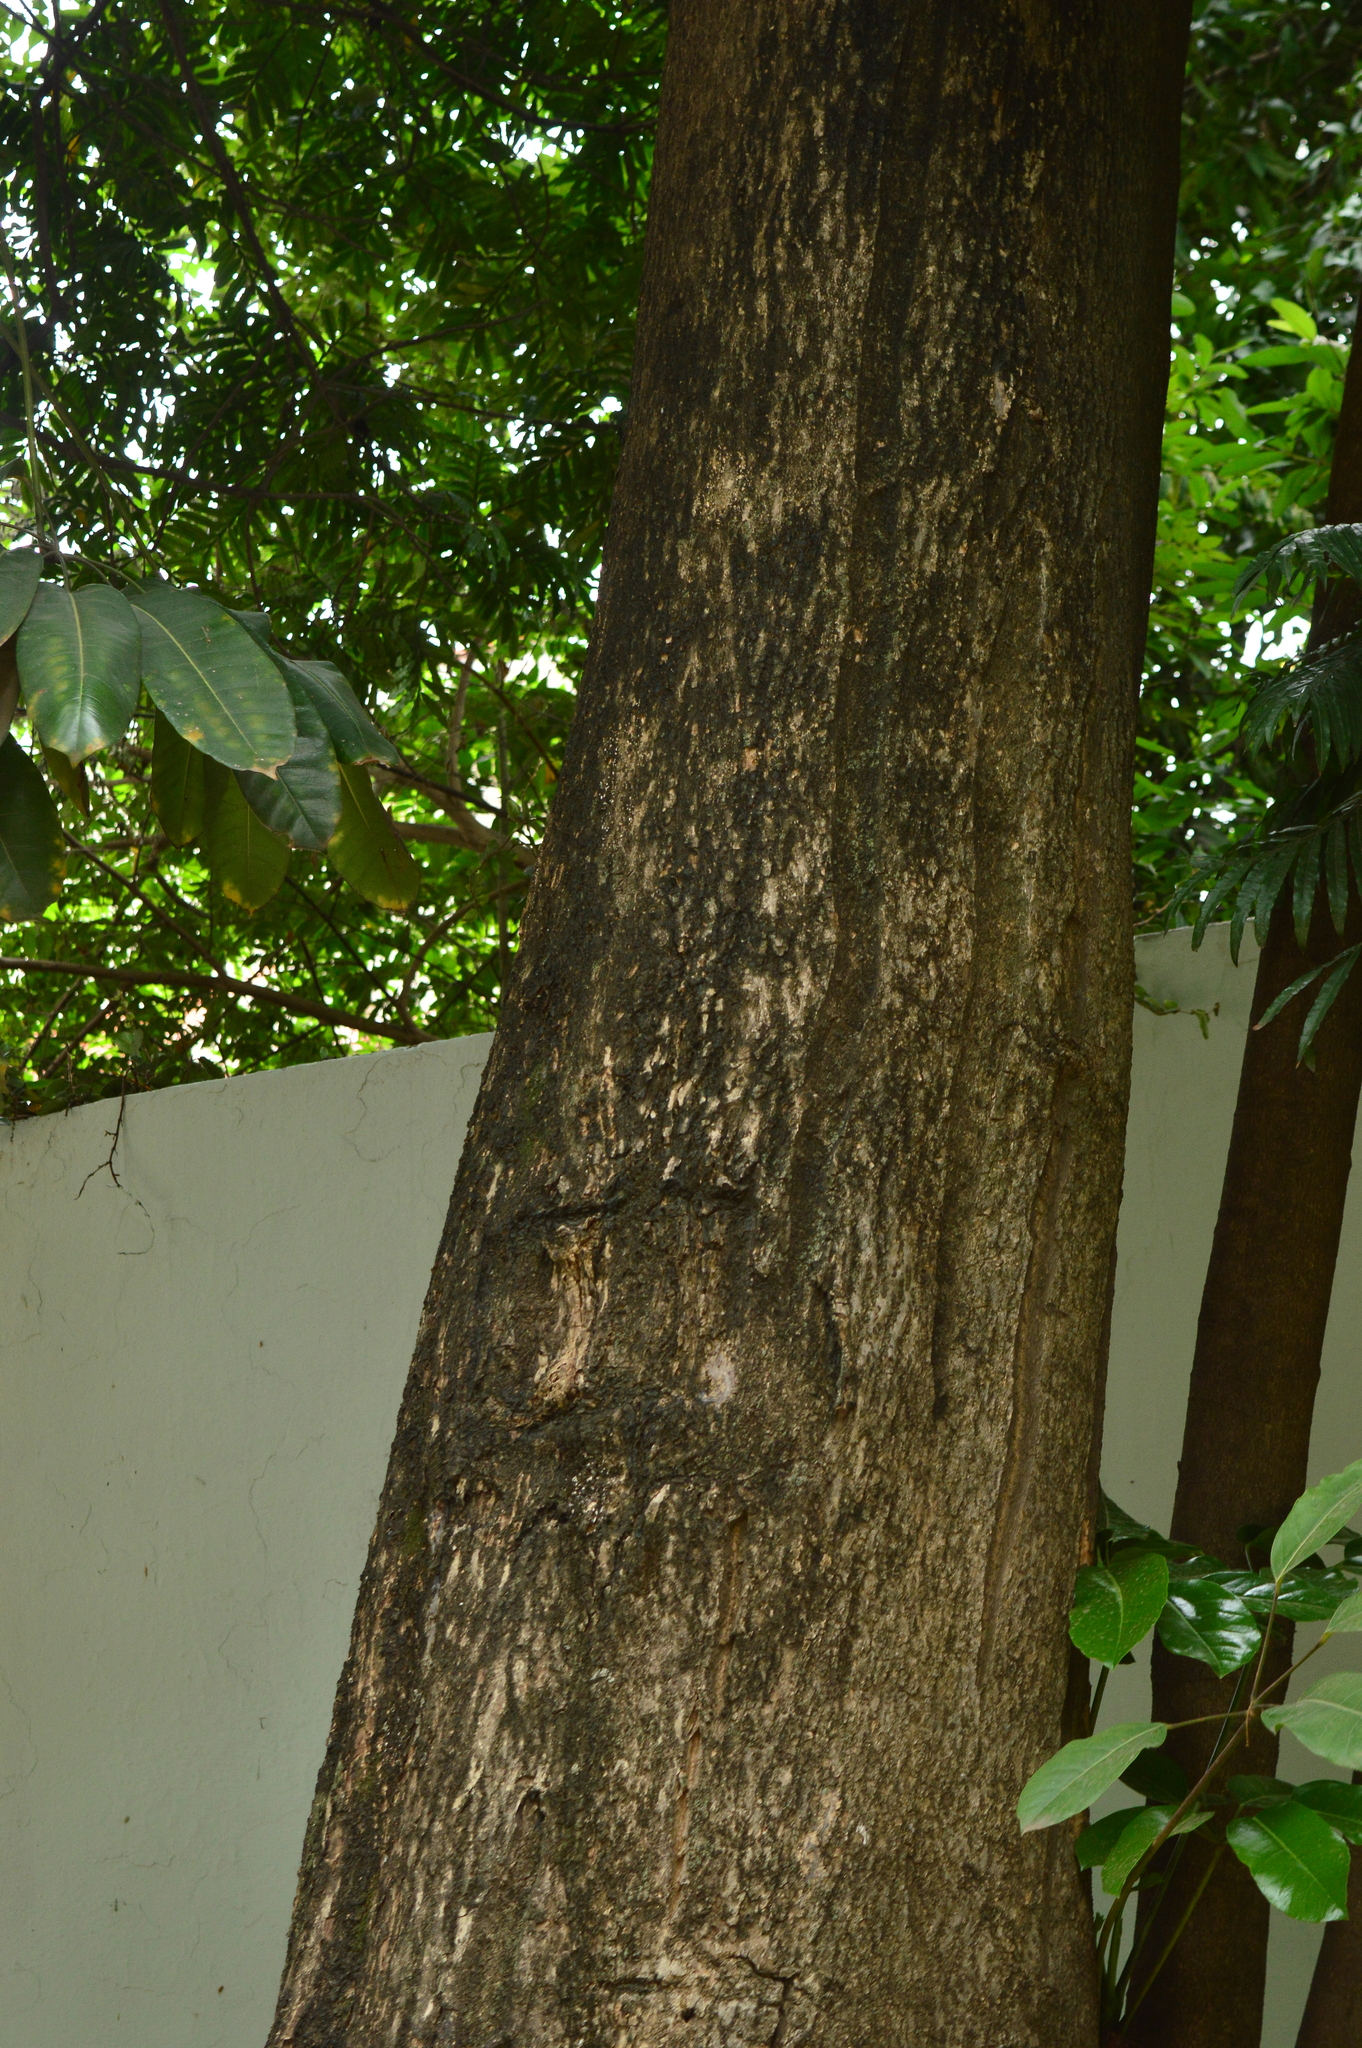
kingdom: Plantae
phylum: Tracheophyta
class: Magnoliopsida
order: Lamiales
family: Bignoniaceae
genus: Spathodea
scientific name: Spathodea campanulata
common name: African tuliptree
